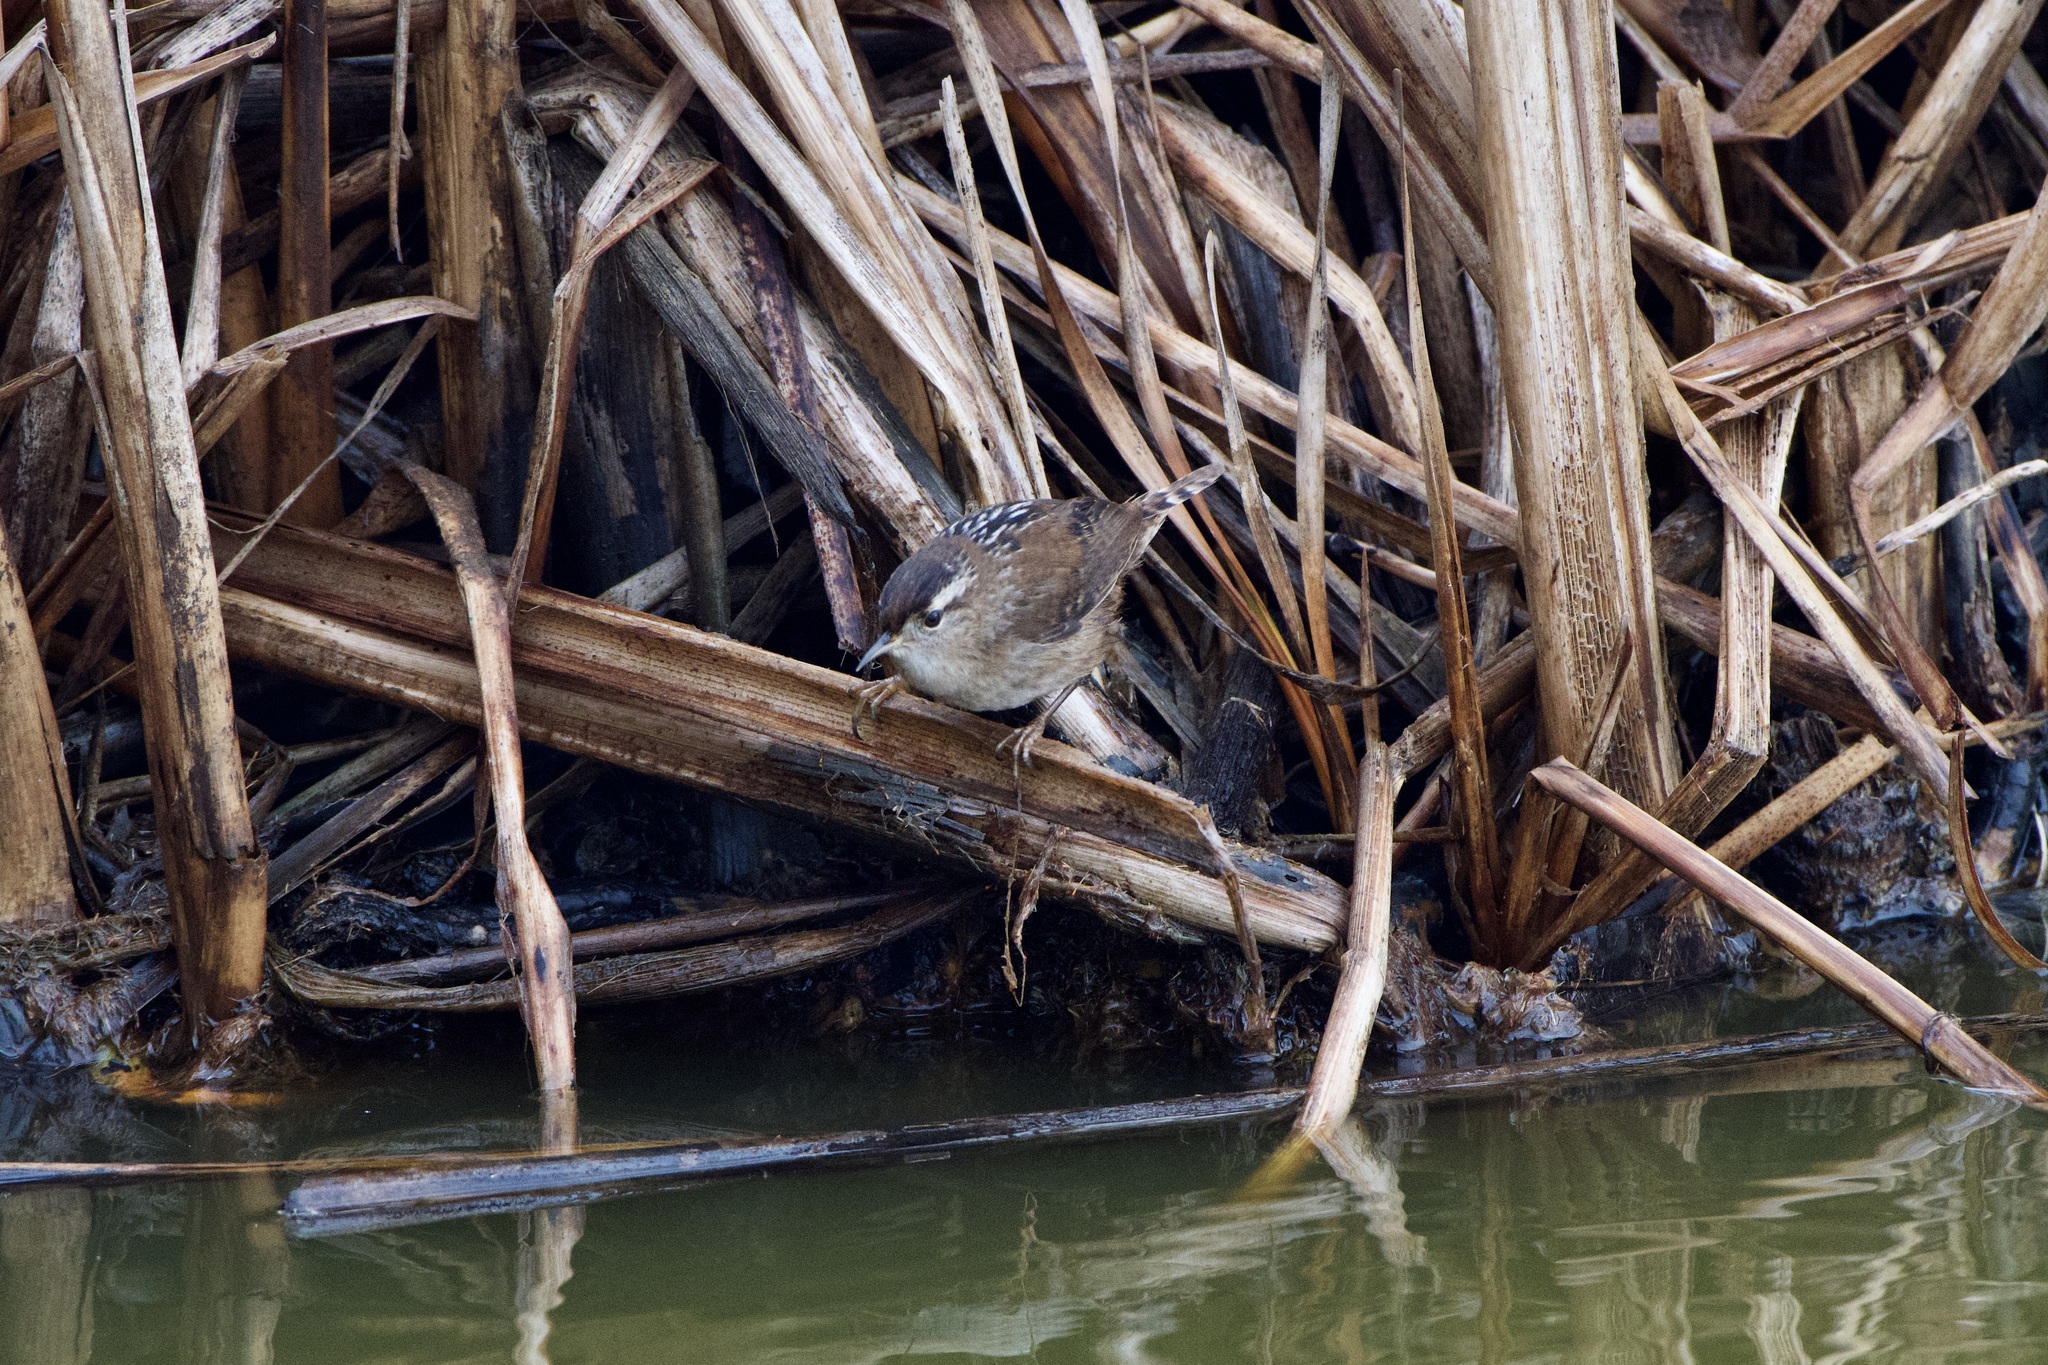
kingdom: Animalia
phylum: Chordata
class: Aves
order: Passeriformes
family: Troglodytidae
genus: Cistothorus
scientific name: Cistothorus palustris
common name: Marsh wren
